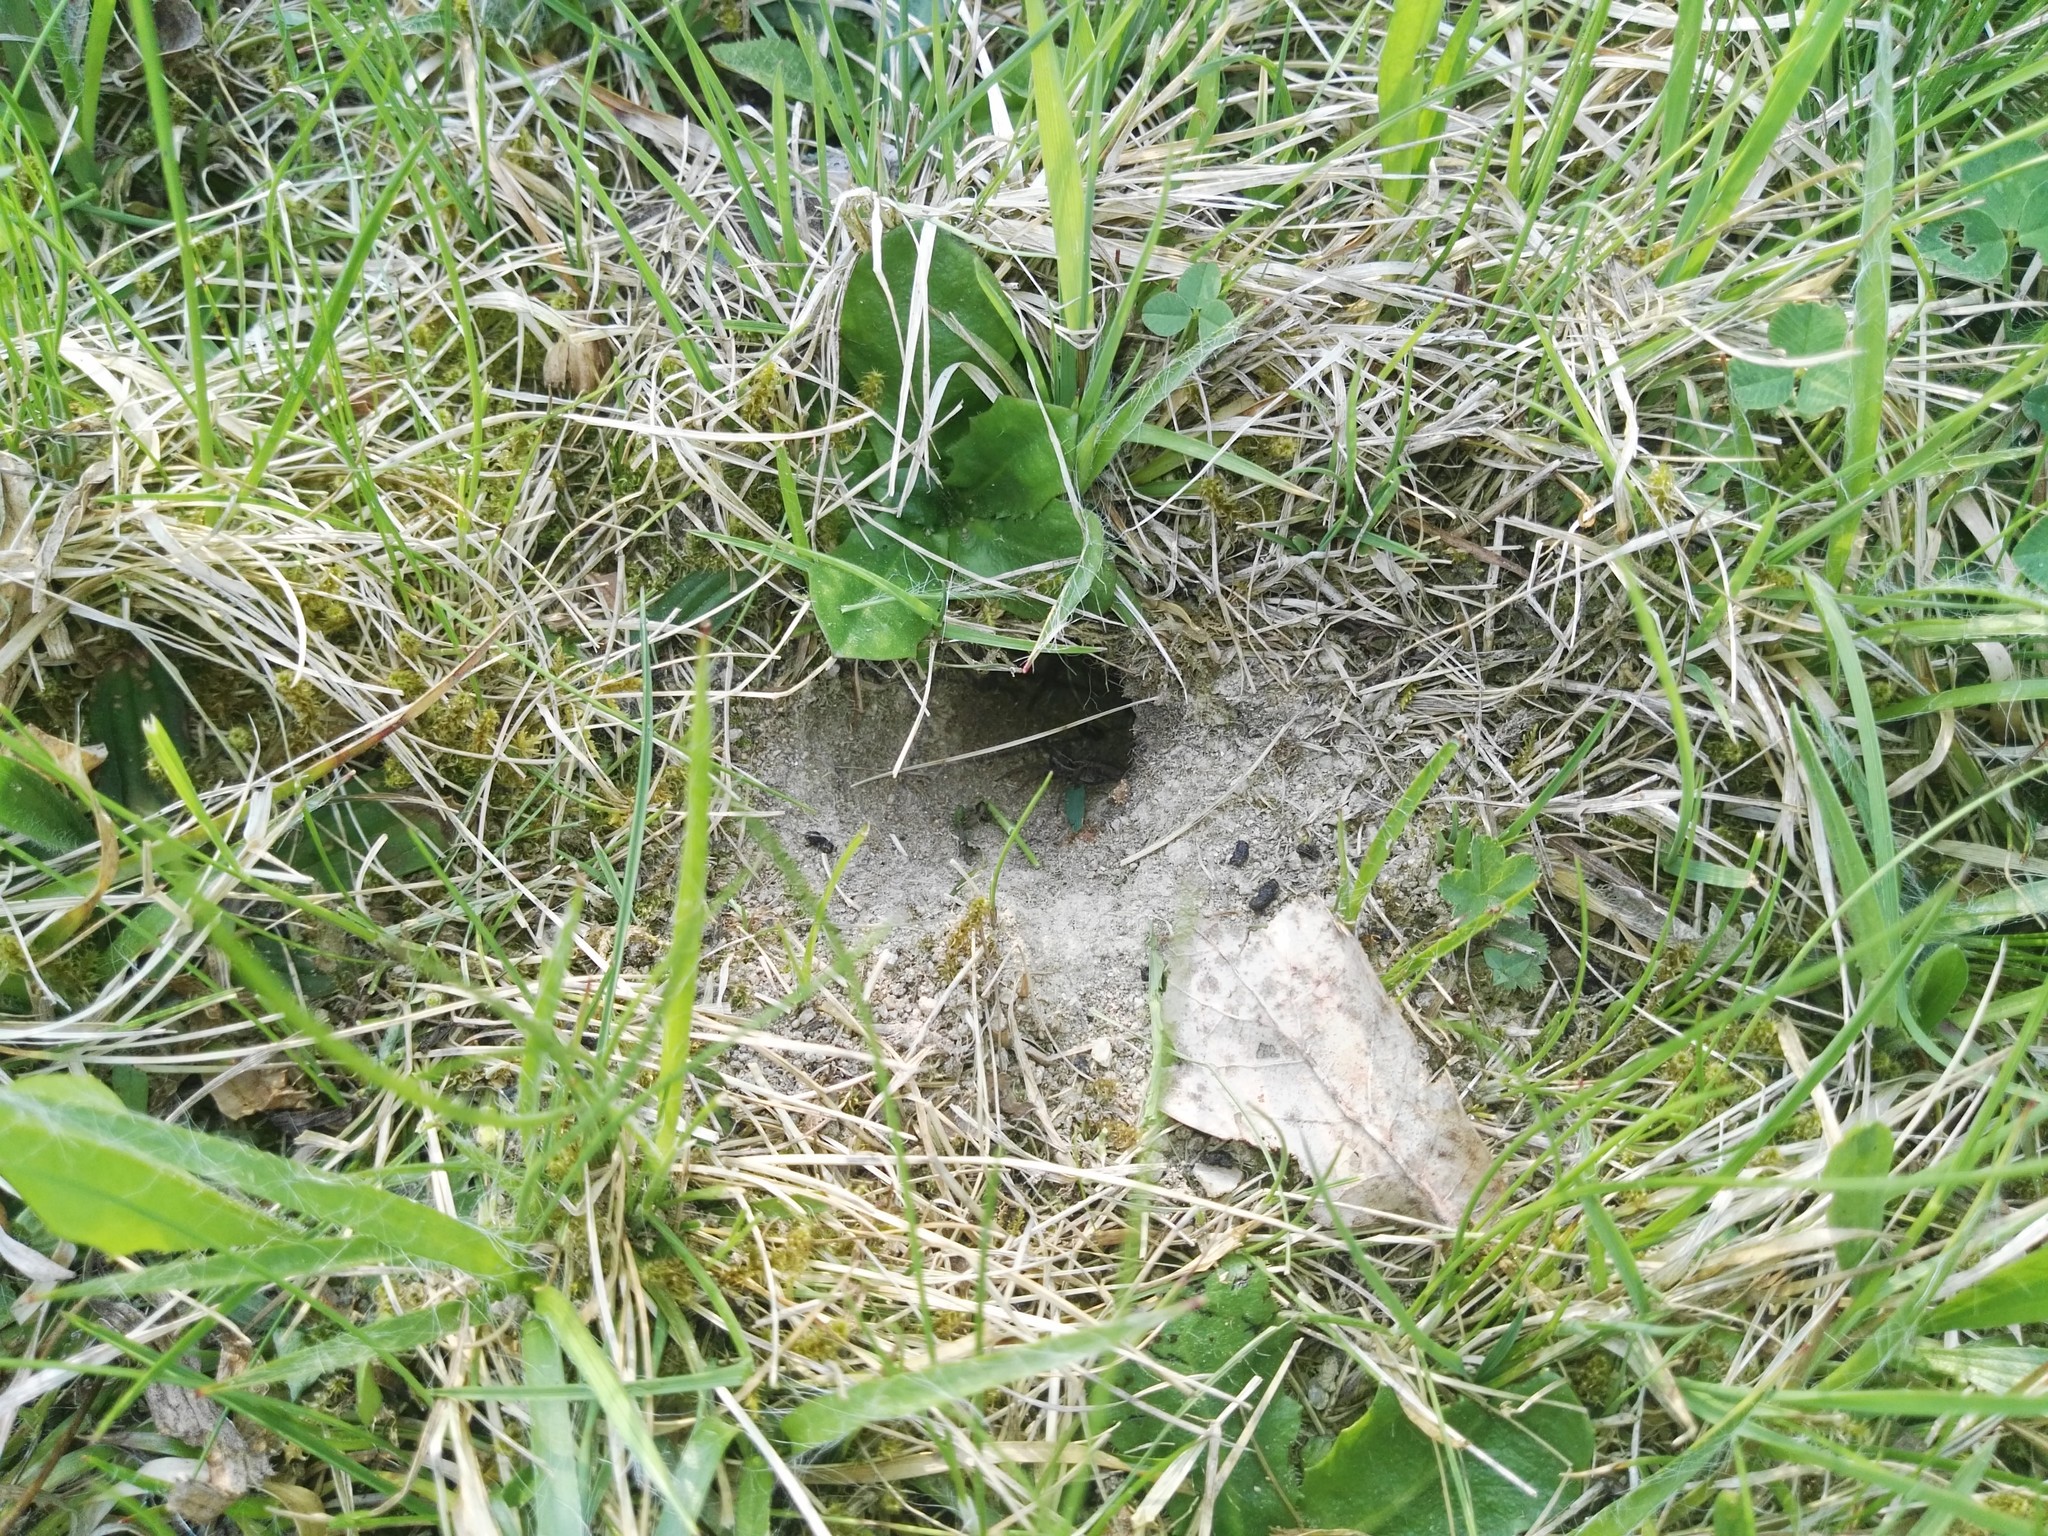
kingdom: Animalia
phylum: Arthropoda
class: Arachnida
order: Araneae
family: Pisauridae
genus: Pisaura
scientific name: Pisaura mirabilis
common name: Tent spider
